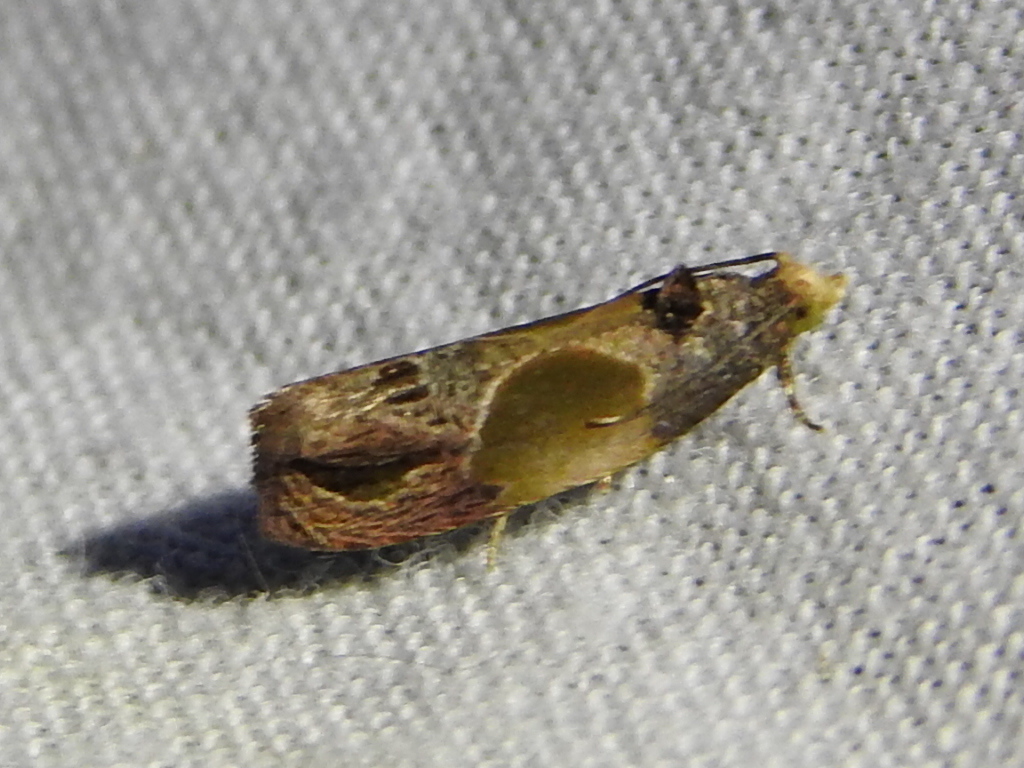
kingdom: Animalia
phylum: Arthropoda
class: Insecta
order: Lepidoptera
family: Tortricidae
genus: Eumarozia
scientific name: Eumarozia malachitana
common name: Sculptured moth
